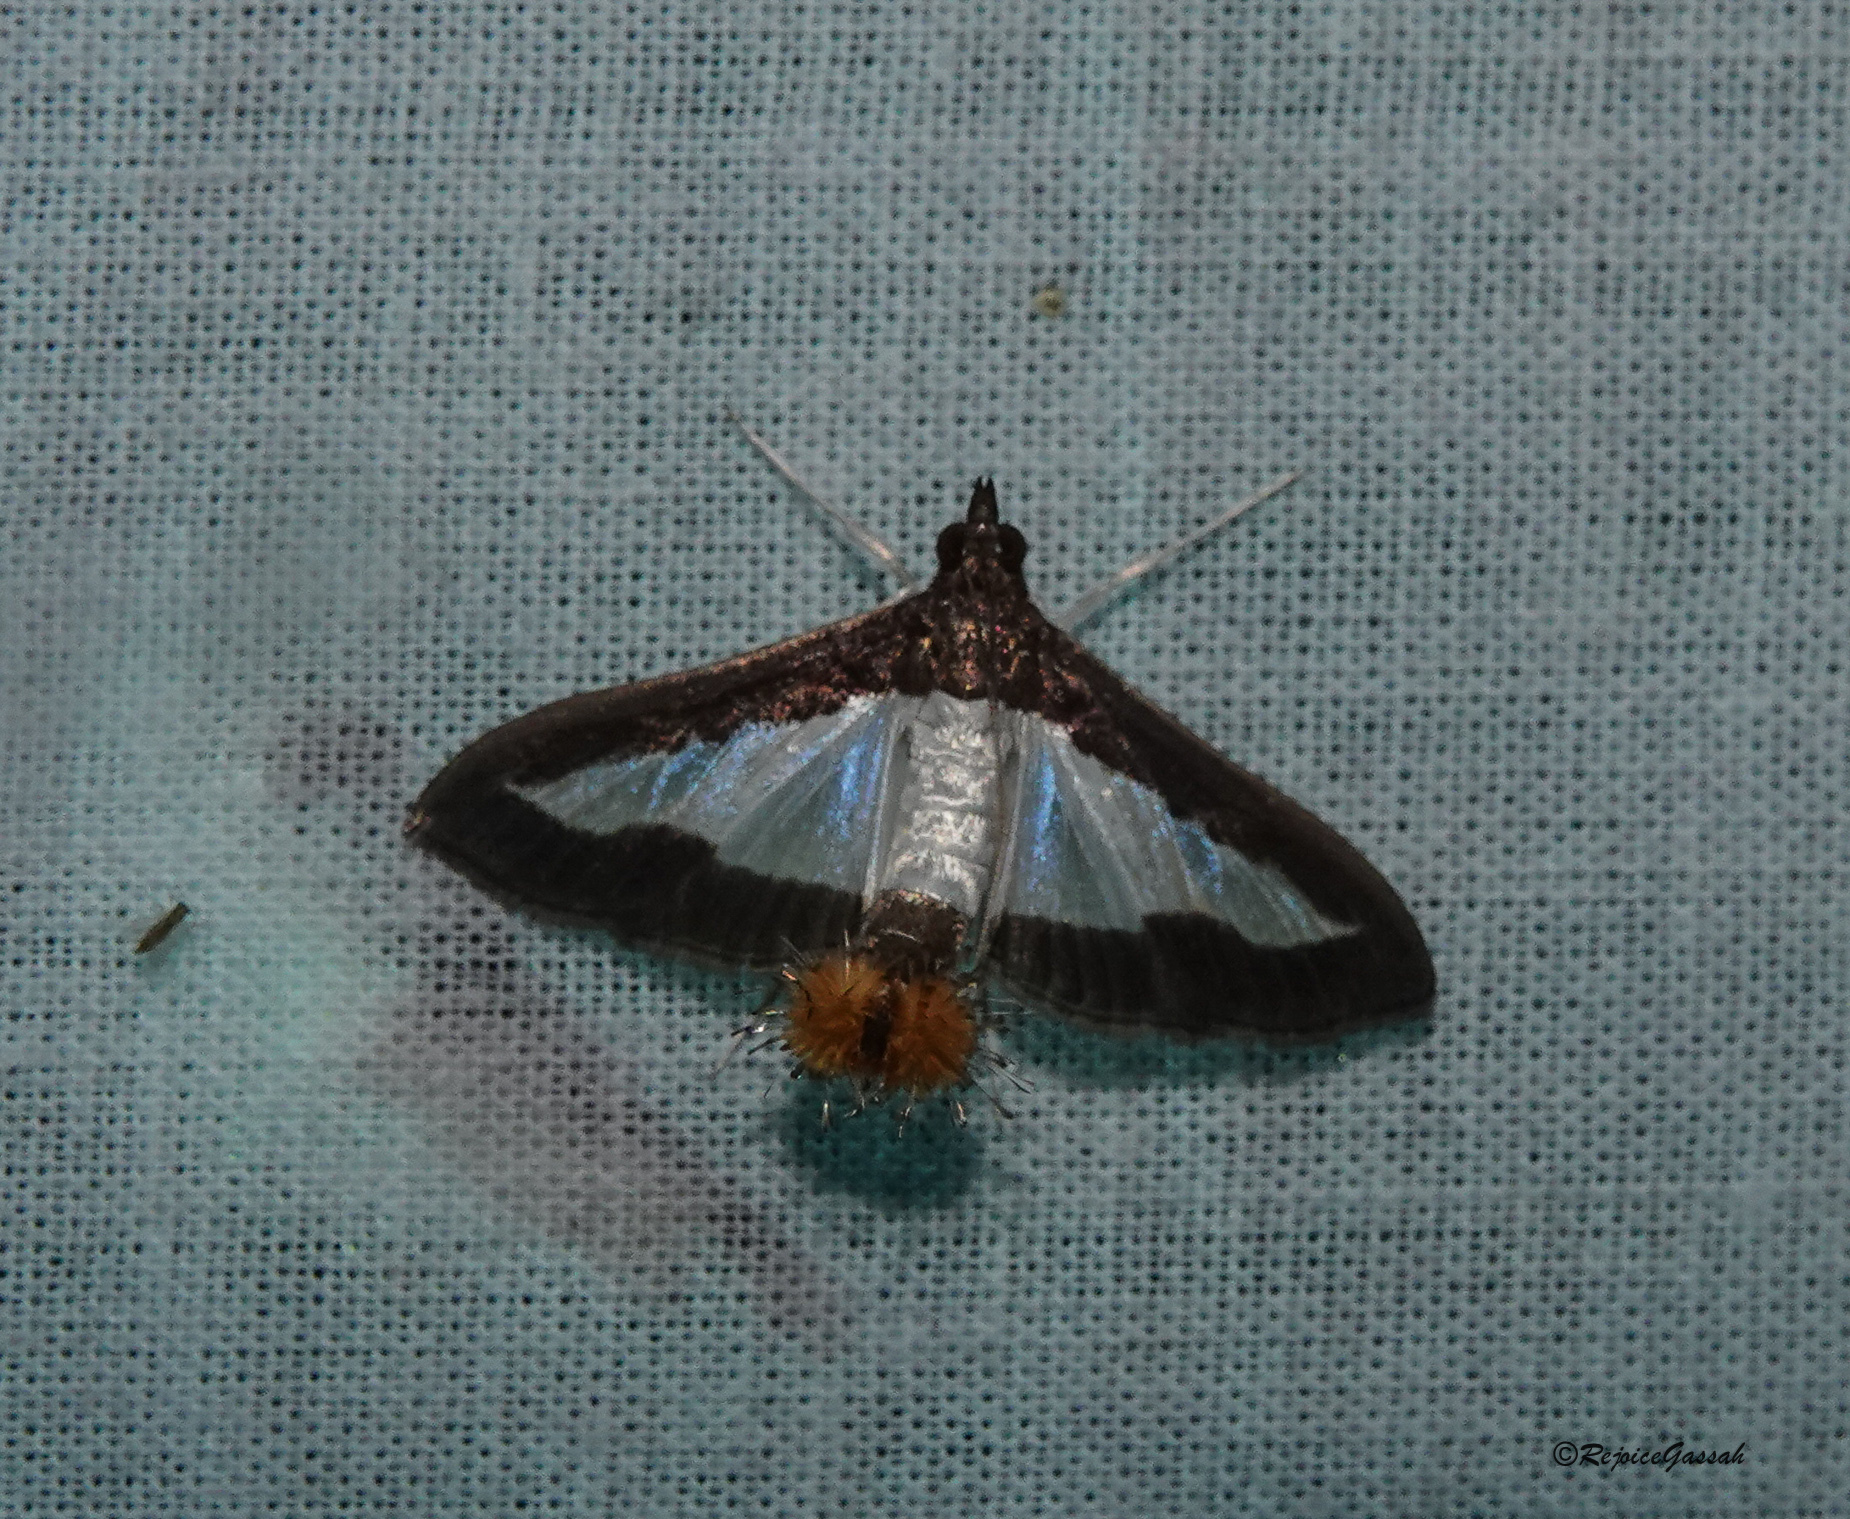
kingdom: Animalia
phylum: Arthropoda
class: Insecta
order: Lepidoptera
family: Crambidae
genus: Diaphania
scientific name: Diaphania indica
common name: Cucumber moth
